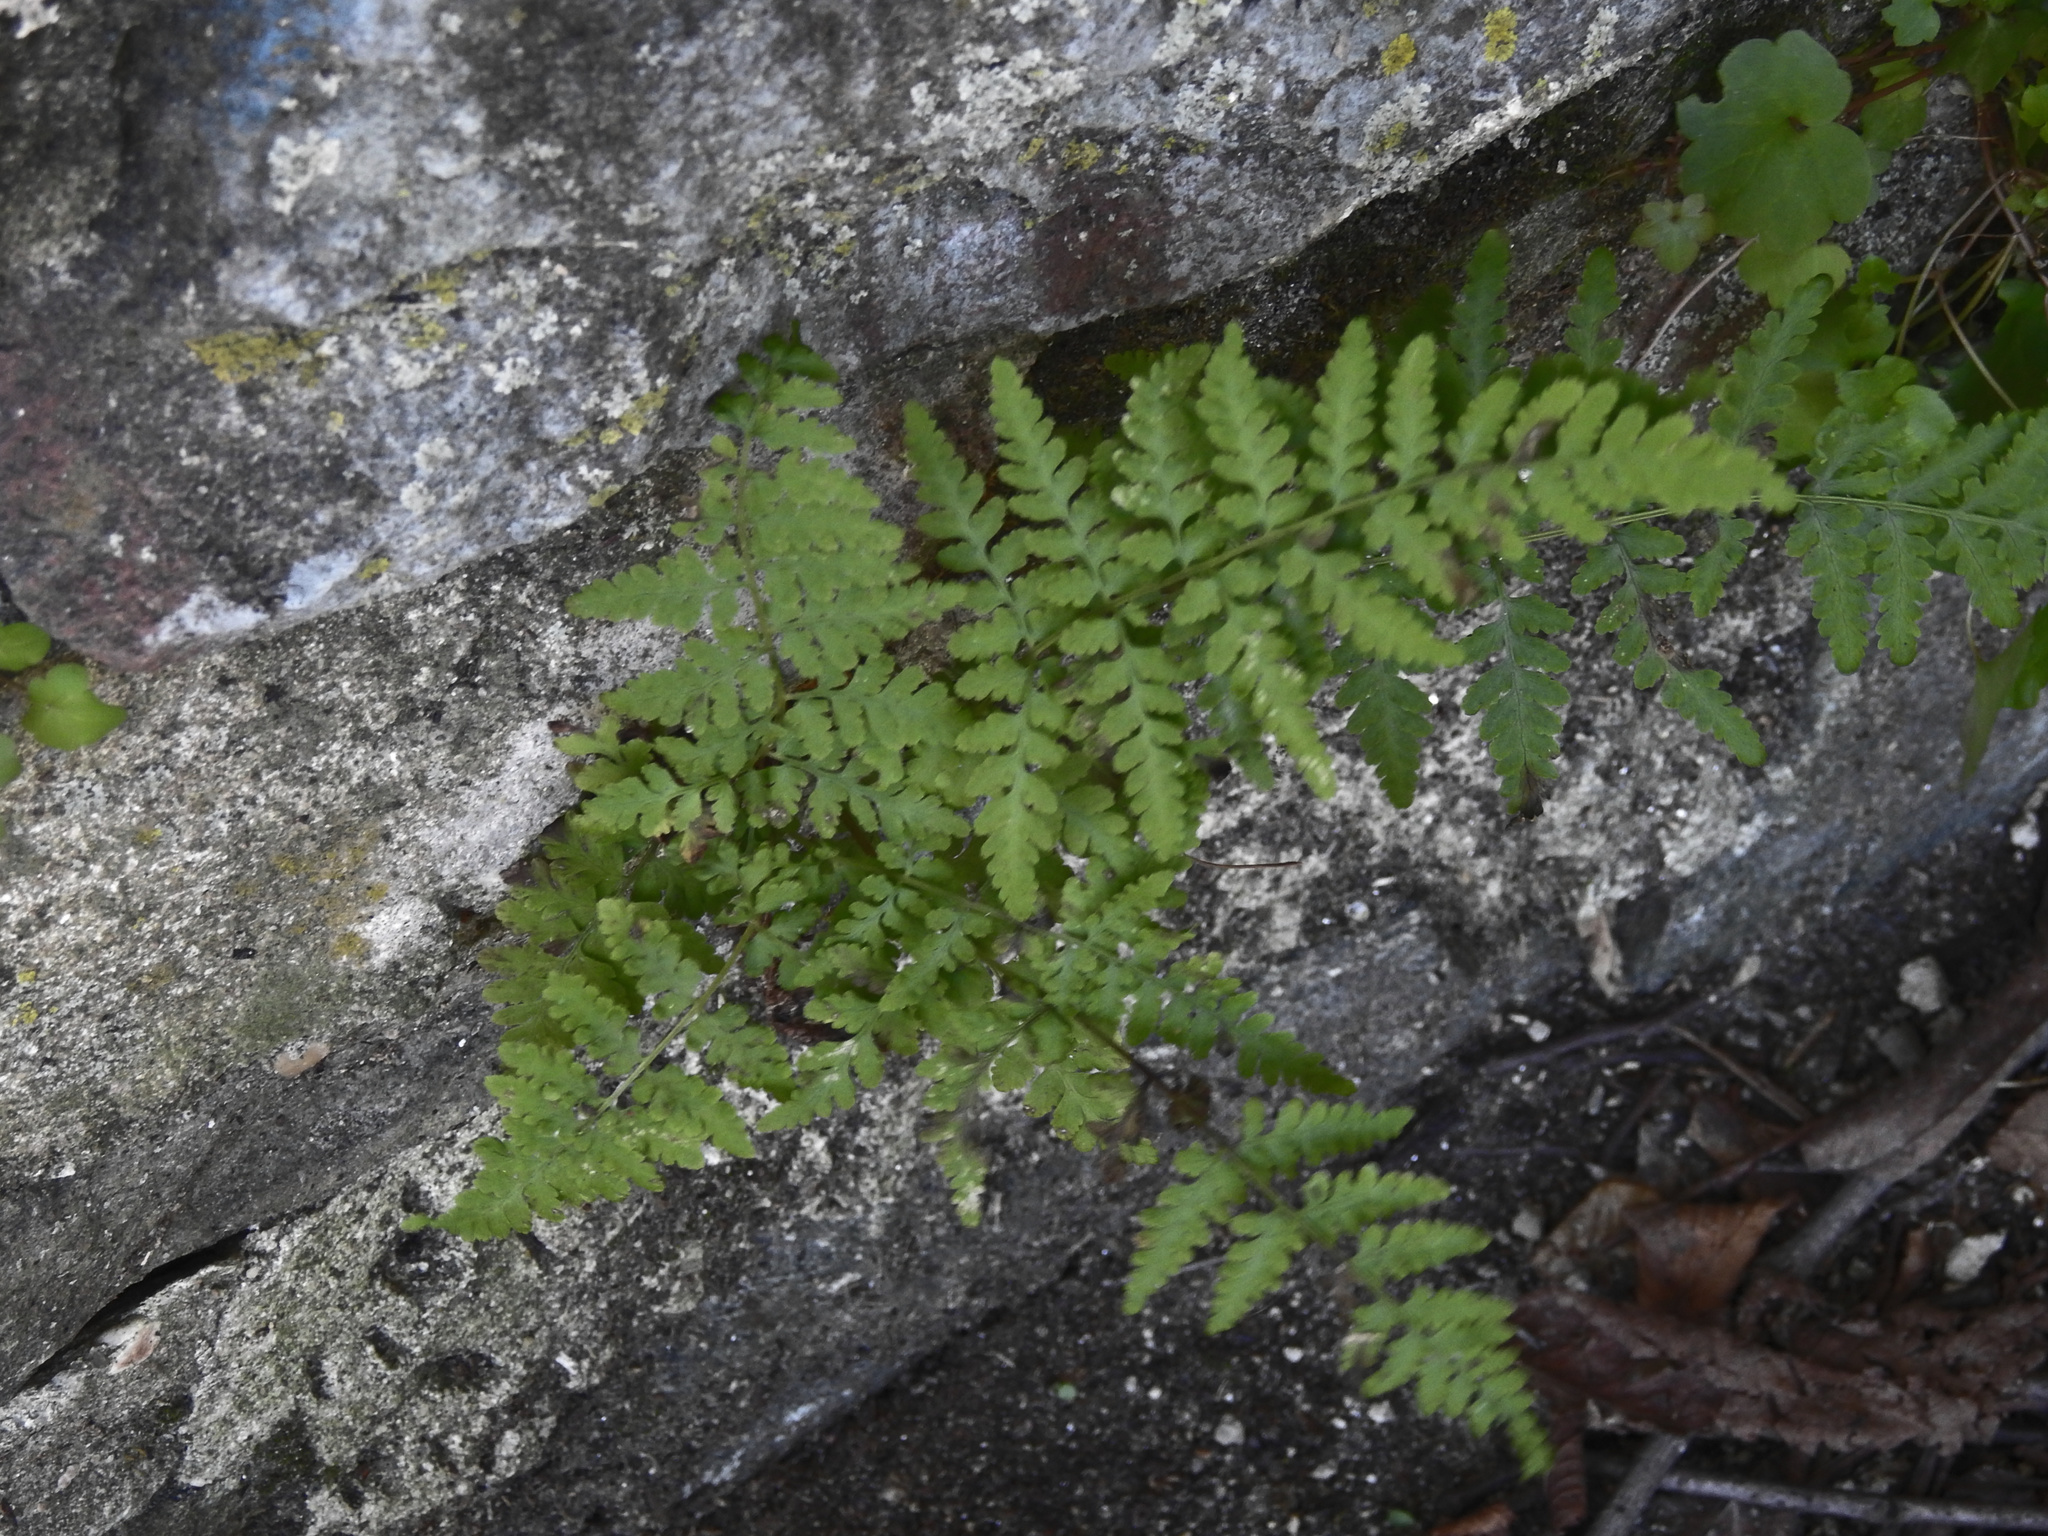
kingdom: Plantae
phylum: Tracheophyta
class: Polypodiopsida
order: Polypodiales
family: Woodsiaceae
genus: Physematium
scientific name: Physematium obtusum
